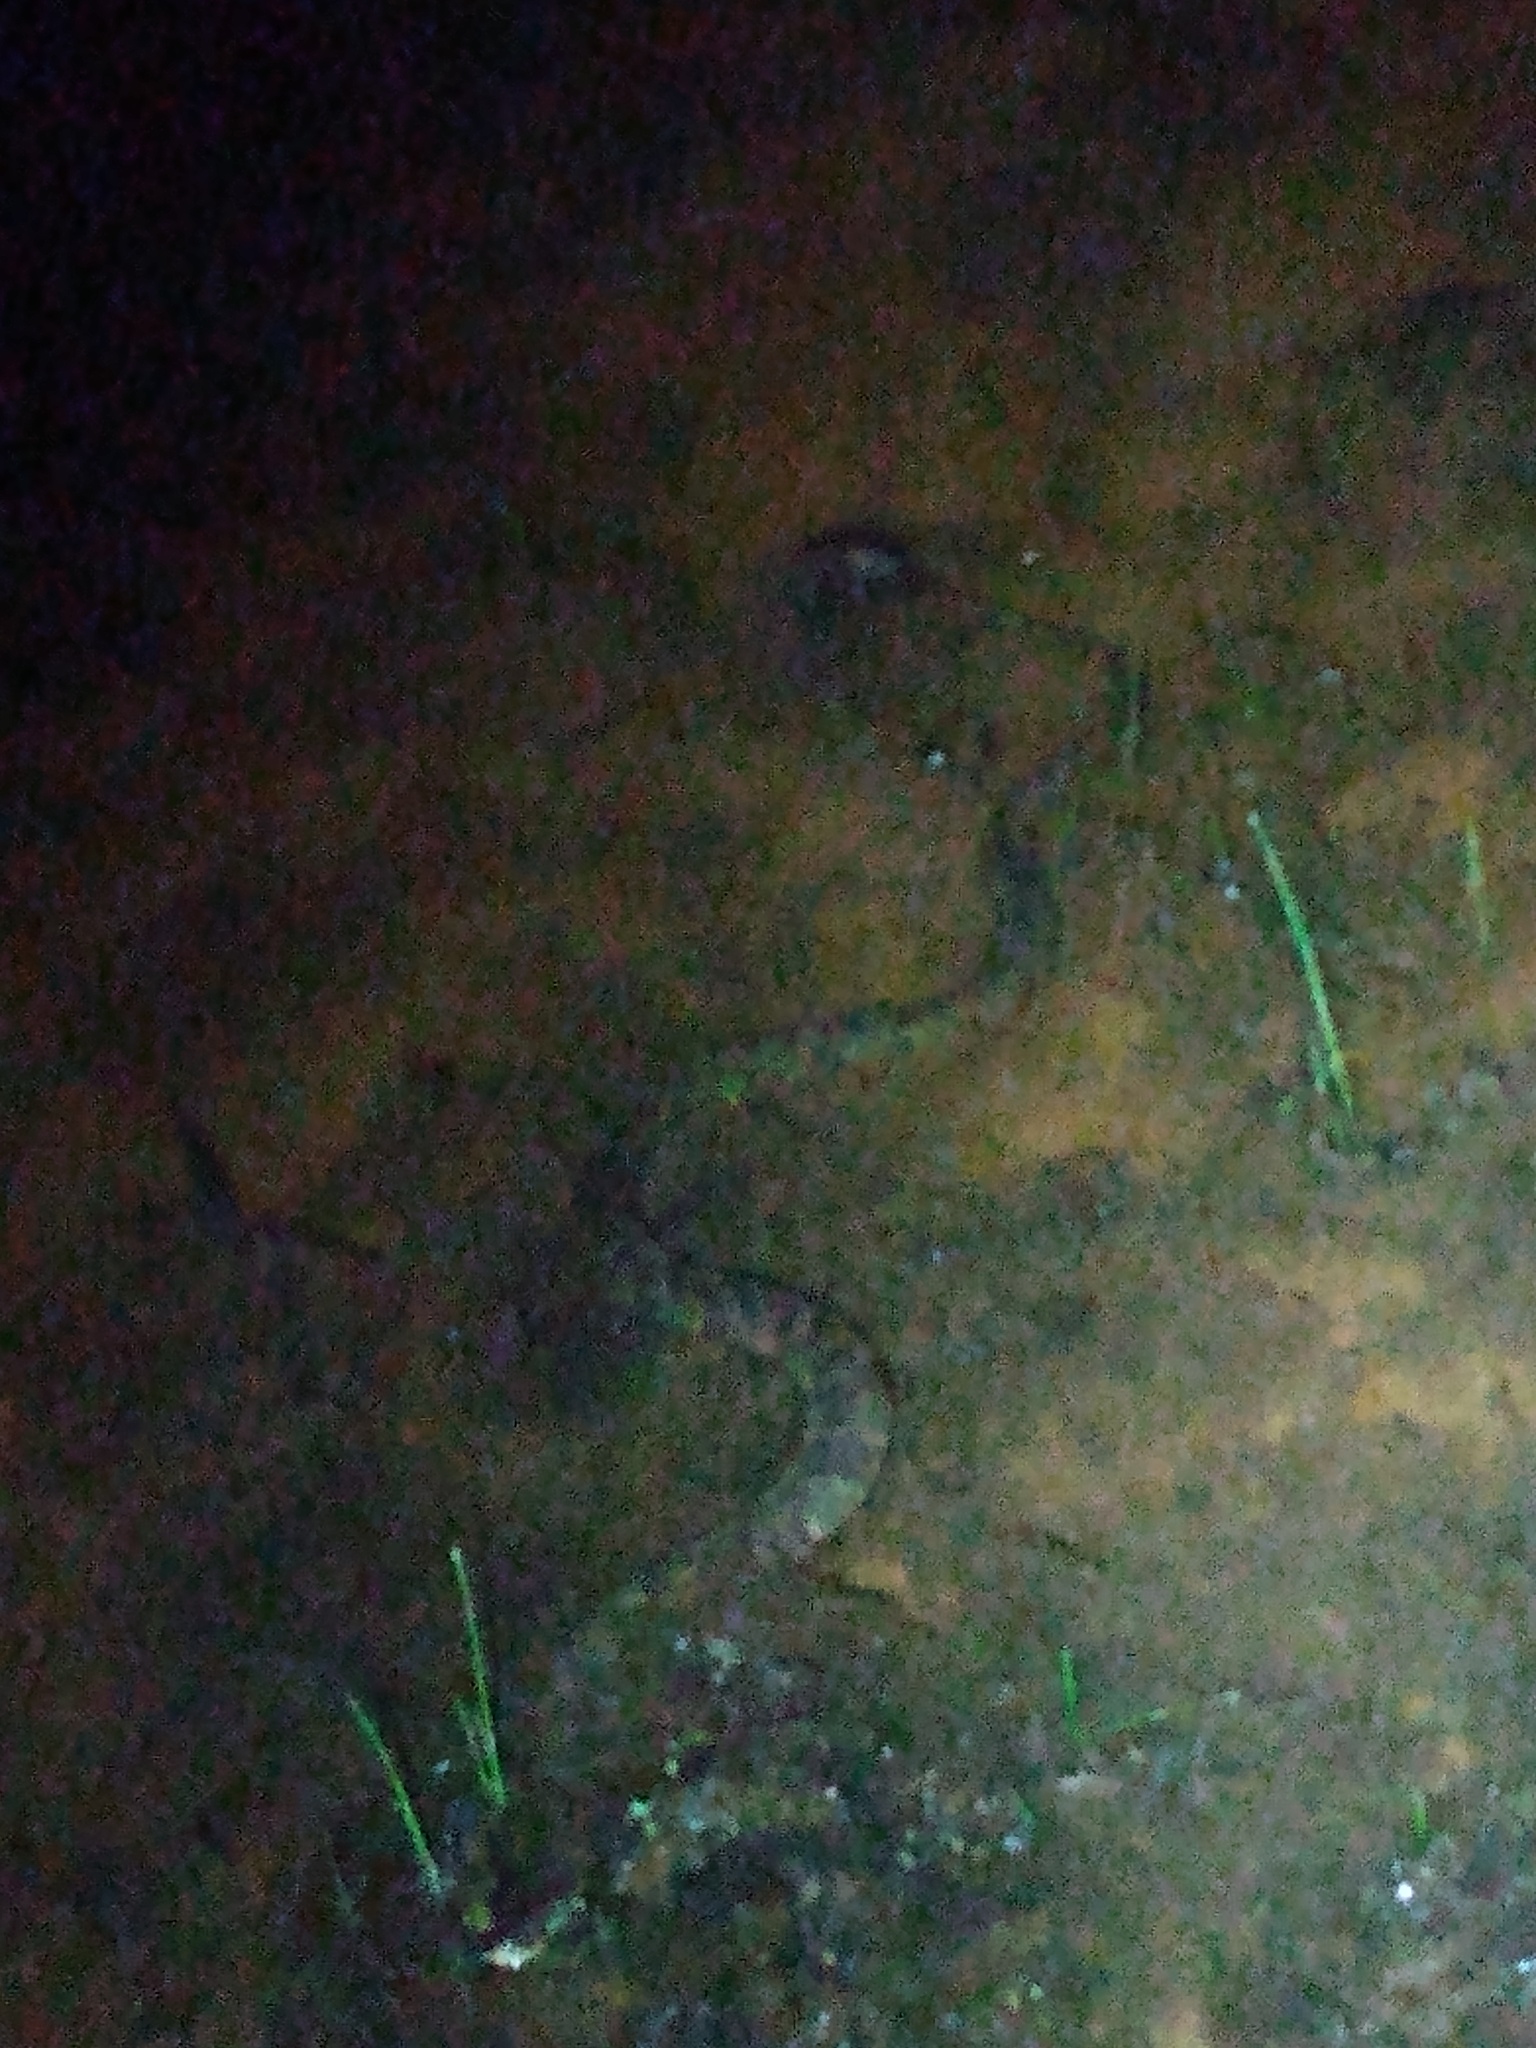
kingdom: Animalia
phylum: Chordata
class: Squamata
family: Colubridae
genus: Nerodia
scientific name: Nerodia sipedon
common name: Northern water snake
